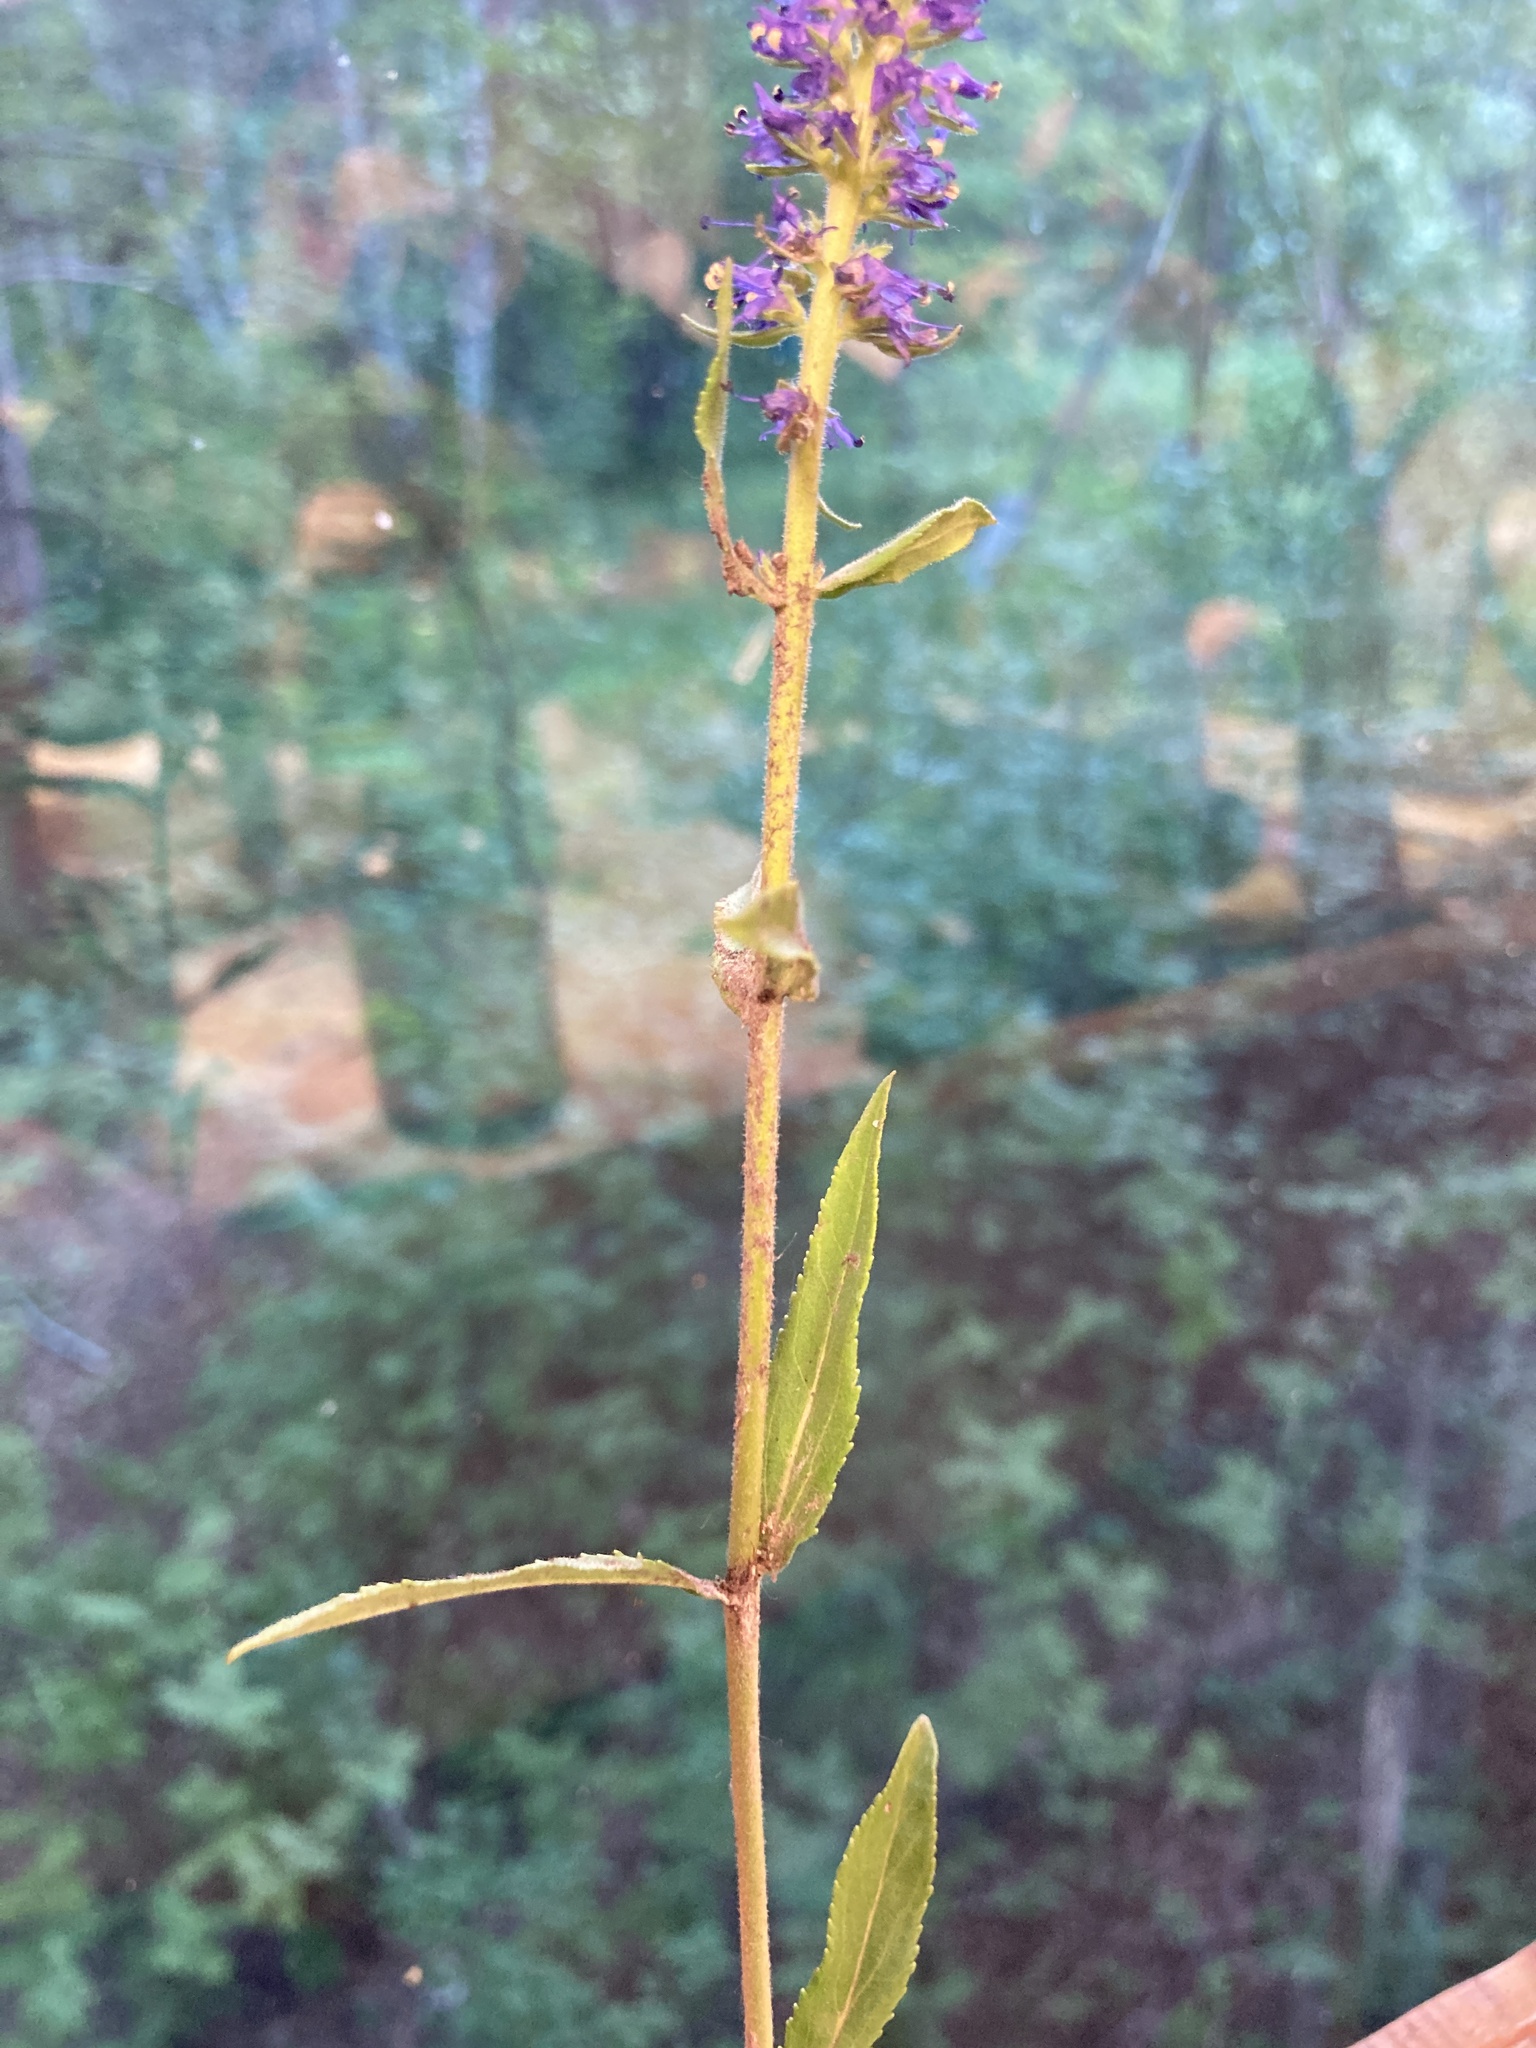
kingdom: Plantae
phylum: Tracheophyta
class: Magnoliopsida
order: Lamiales
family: Plantaginaceae
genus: Veronica
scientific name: Veronica spicata
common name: Spiked speedwell
